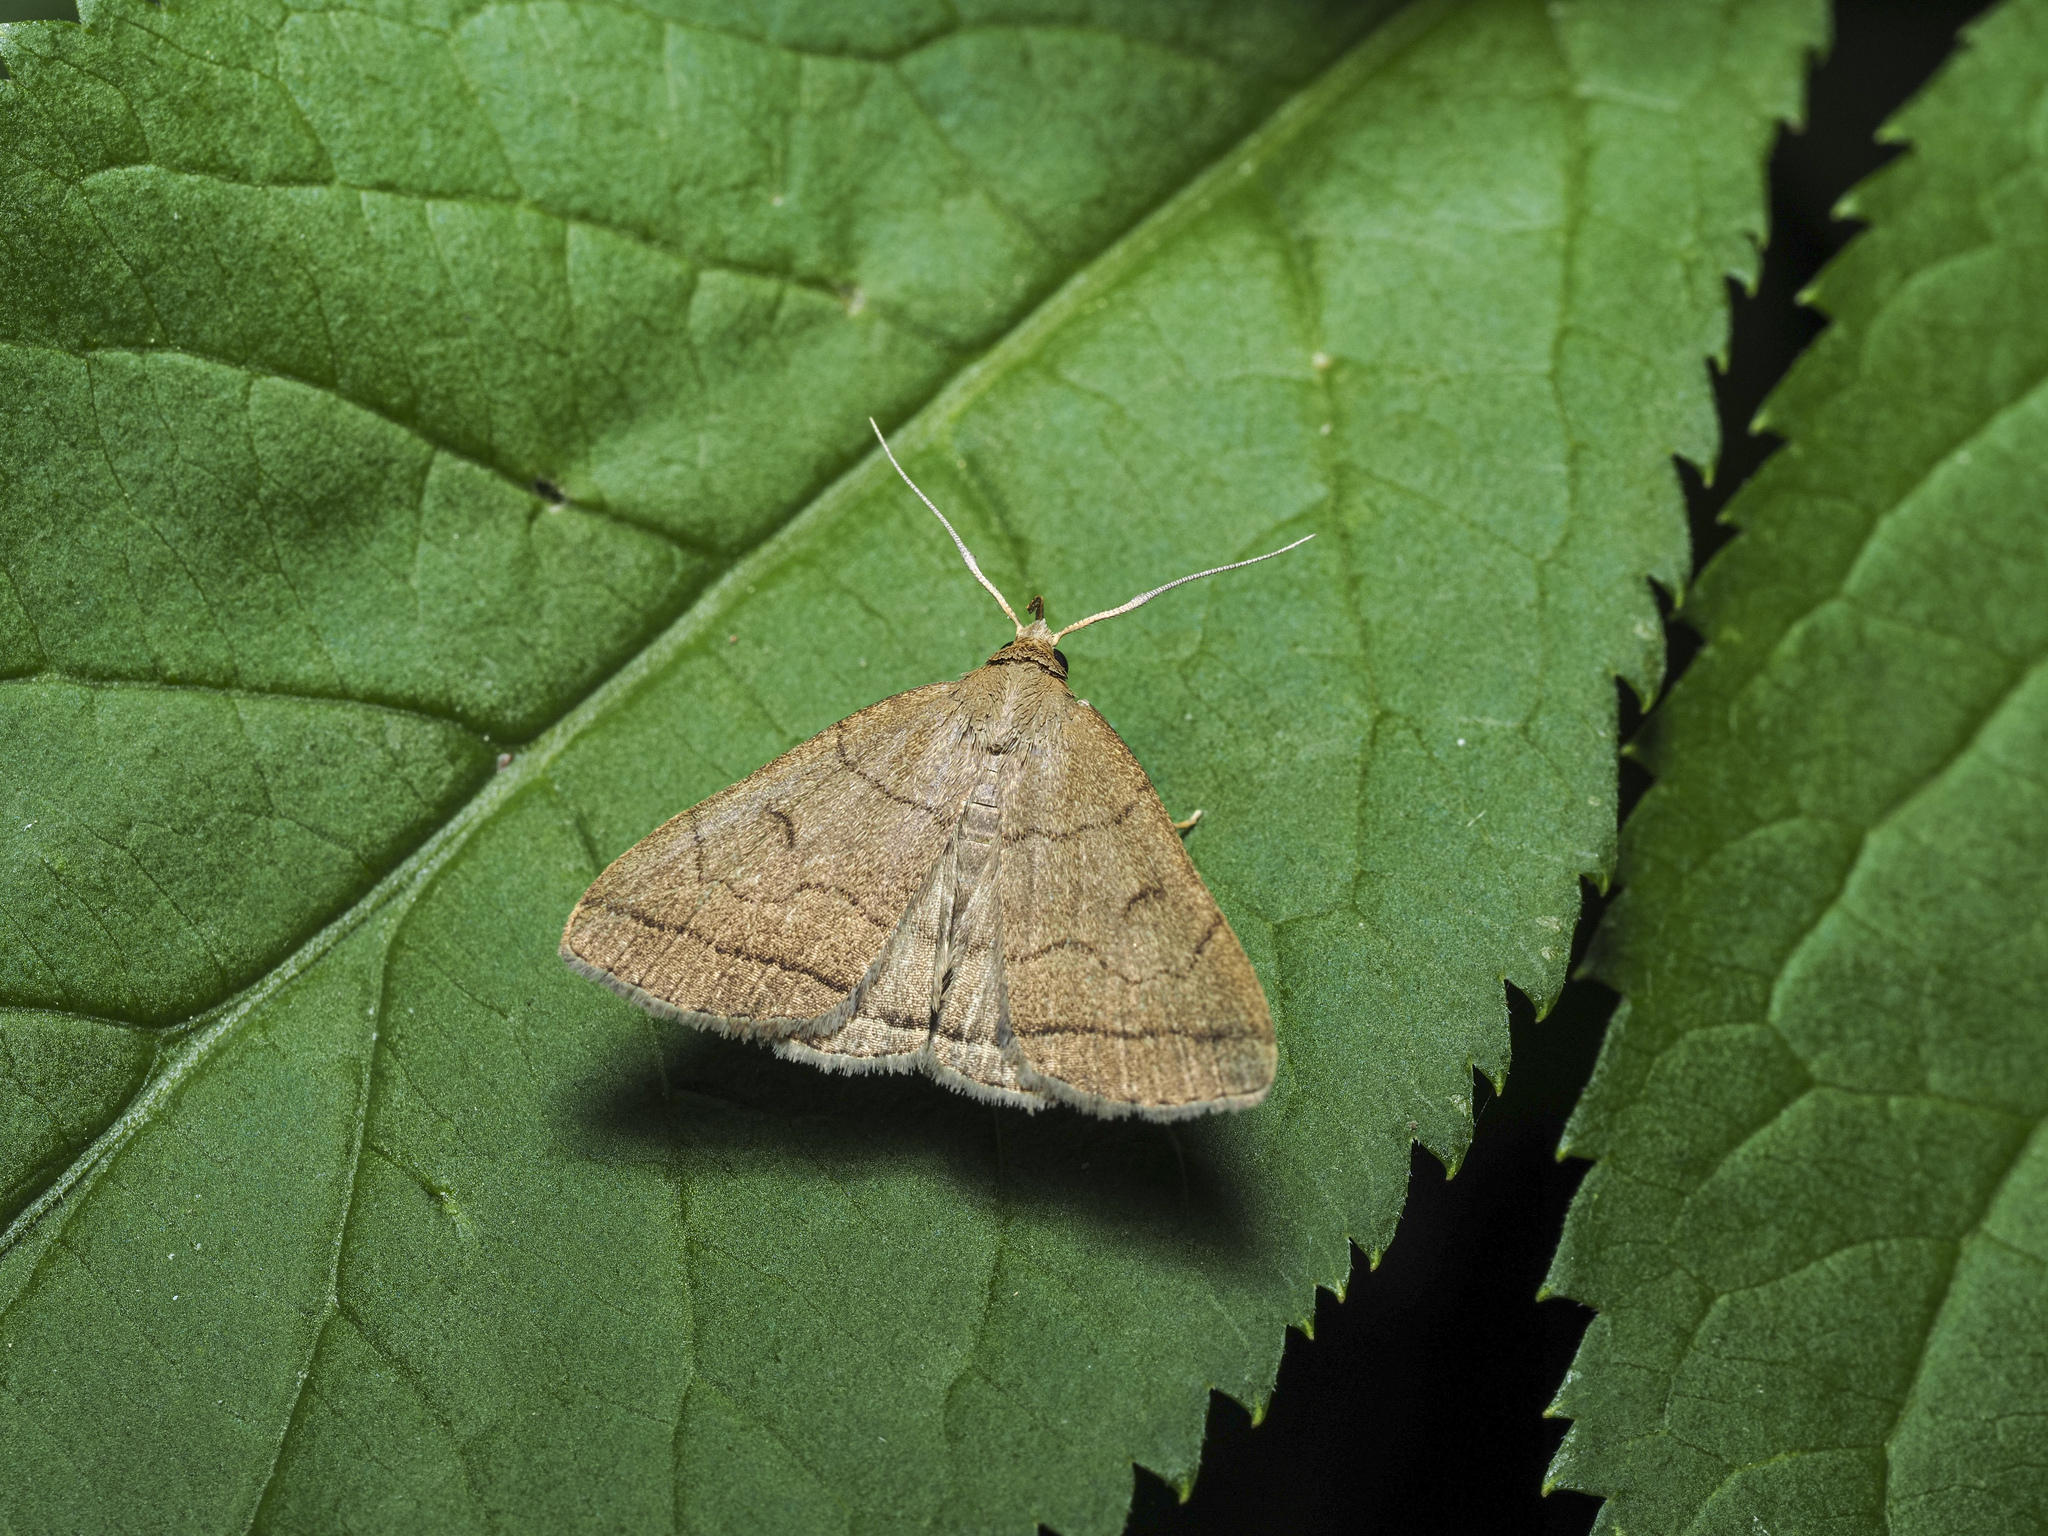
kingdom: Animalia
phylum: Arthropoda
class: Insecta
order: Lepidoptera
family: Erebidae
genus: Herminia
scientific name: Herminia tarsipennalis
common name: Fan-foot
